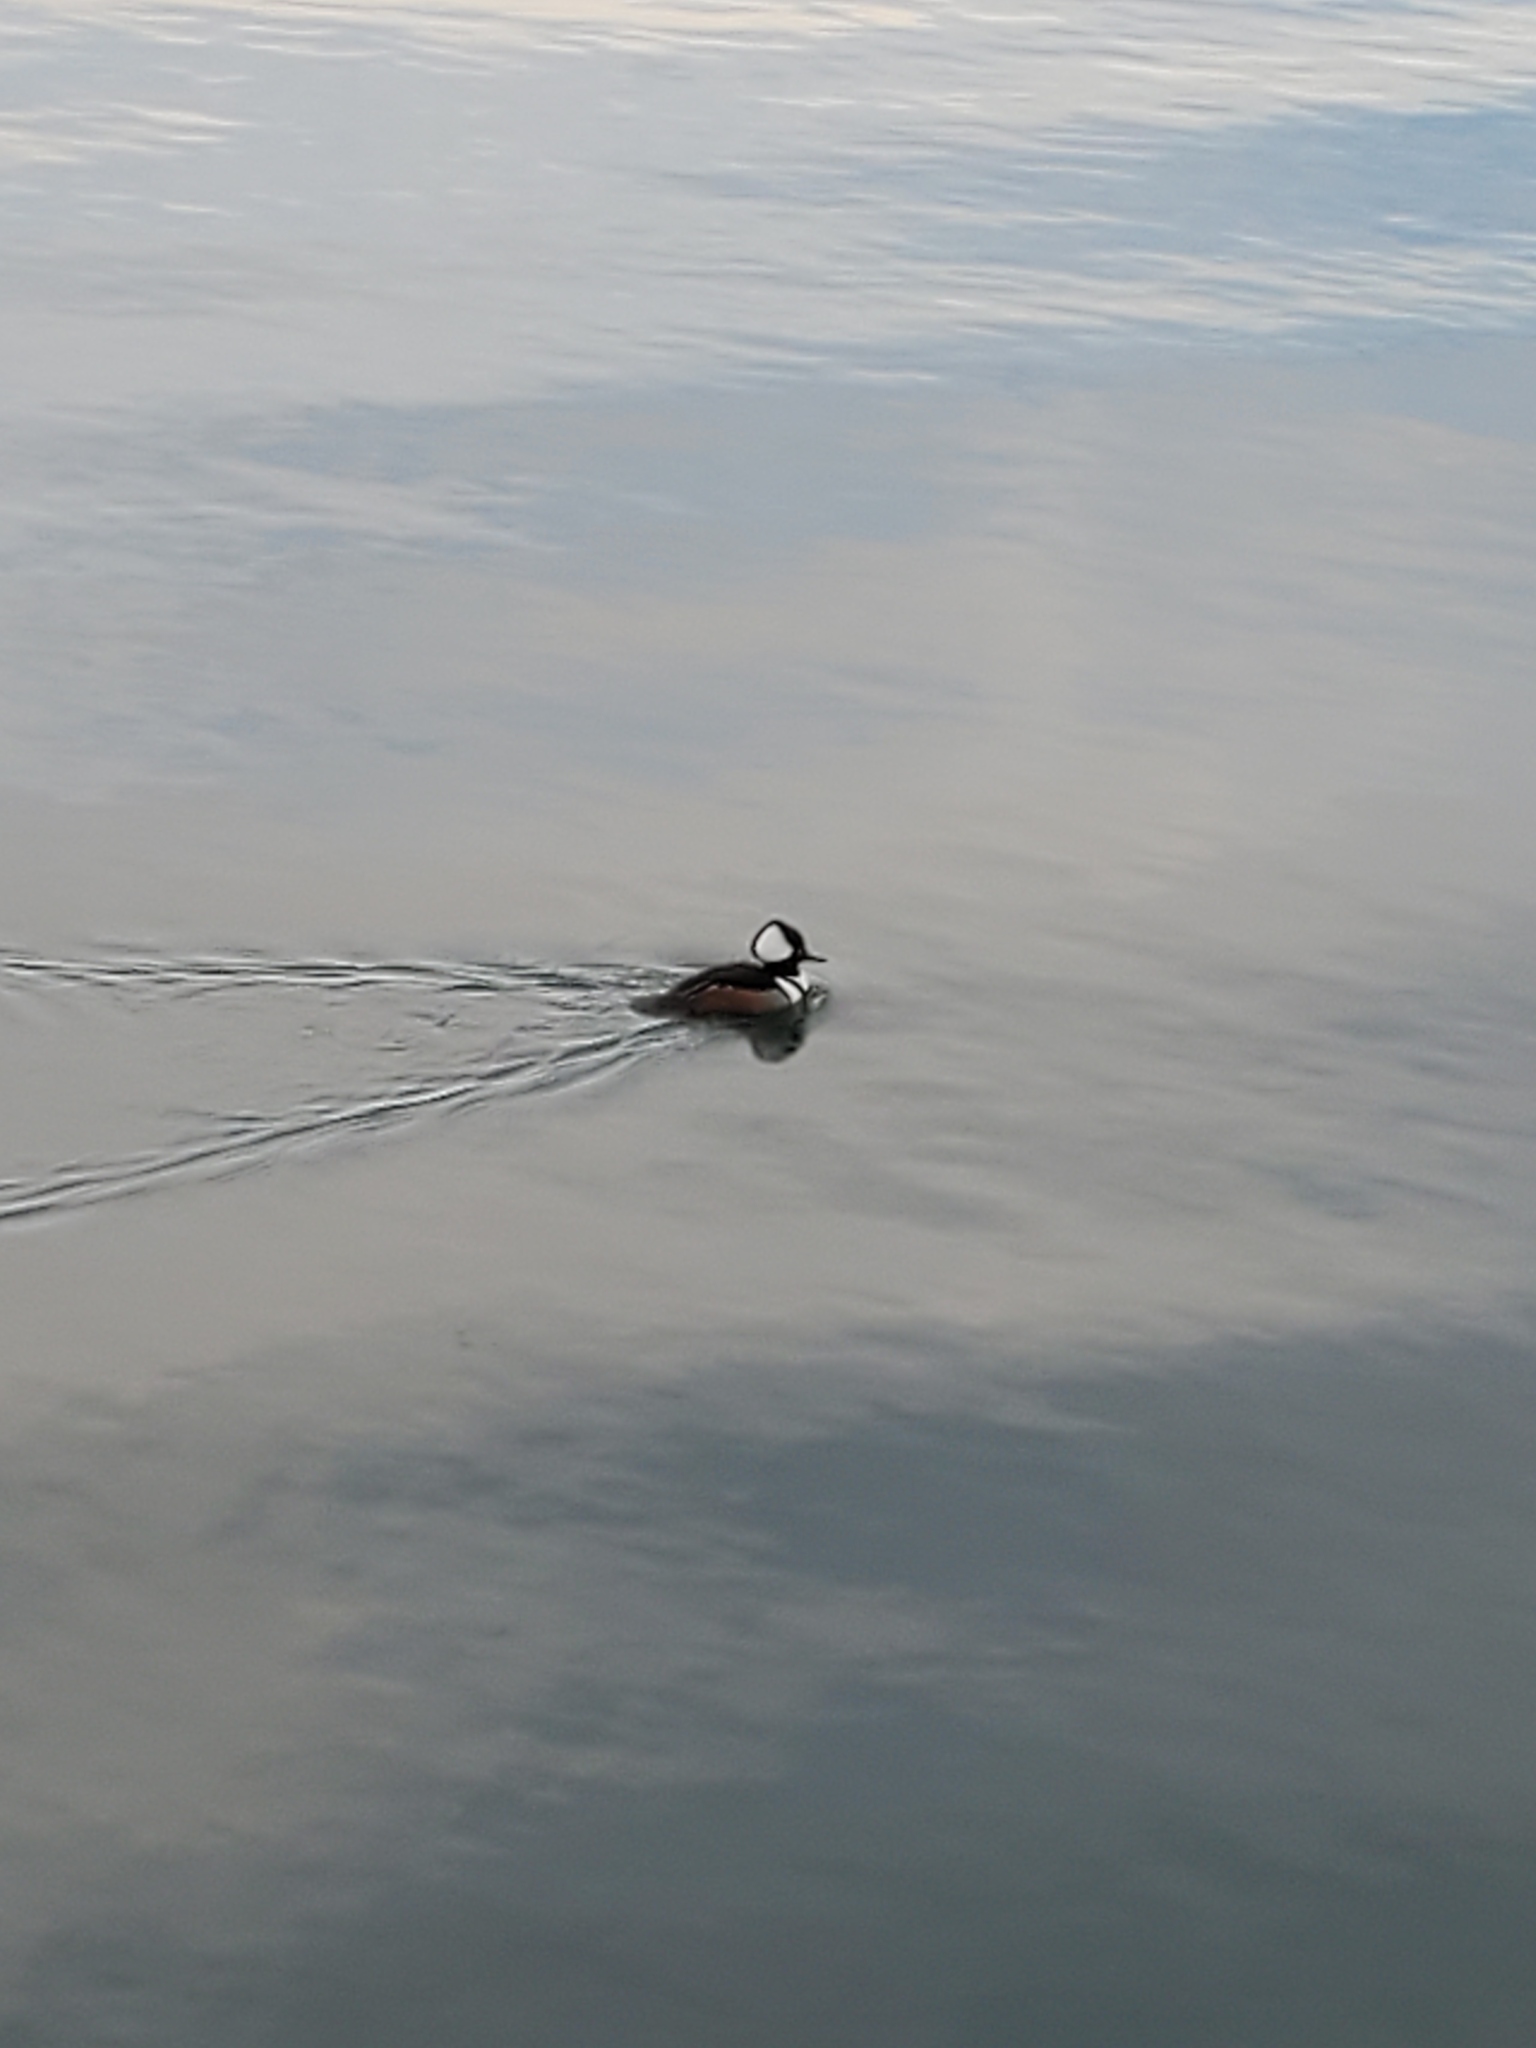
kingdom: Animalia
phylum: Chordata
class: Aves
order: Anseriformes
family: Anatidae
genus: Lophodytes
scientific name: Lophodytes cucullatus
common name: Hooded merganser
